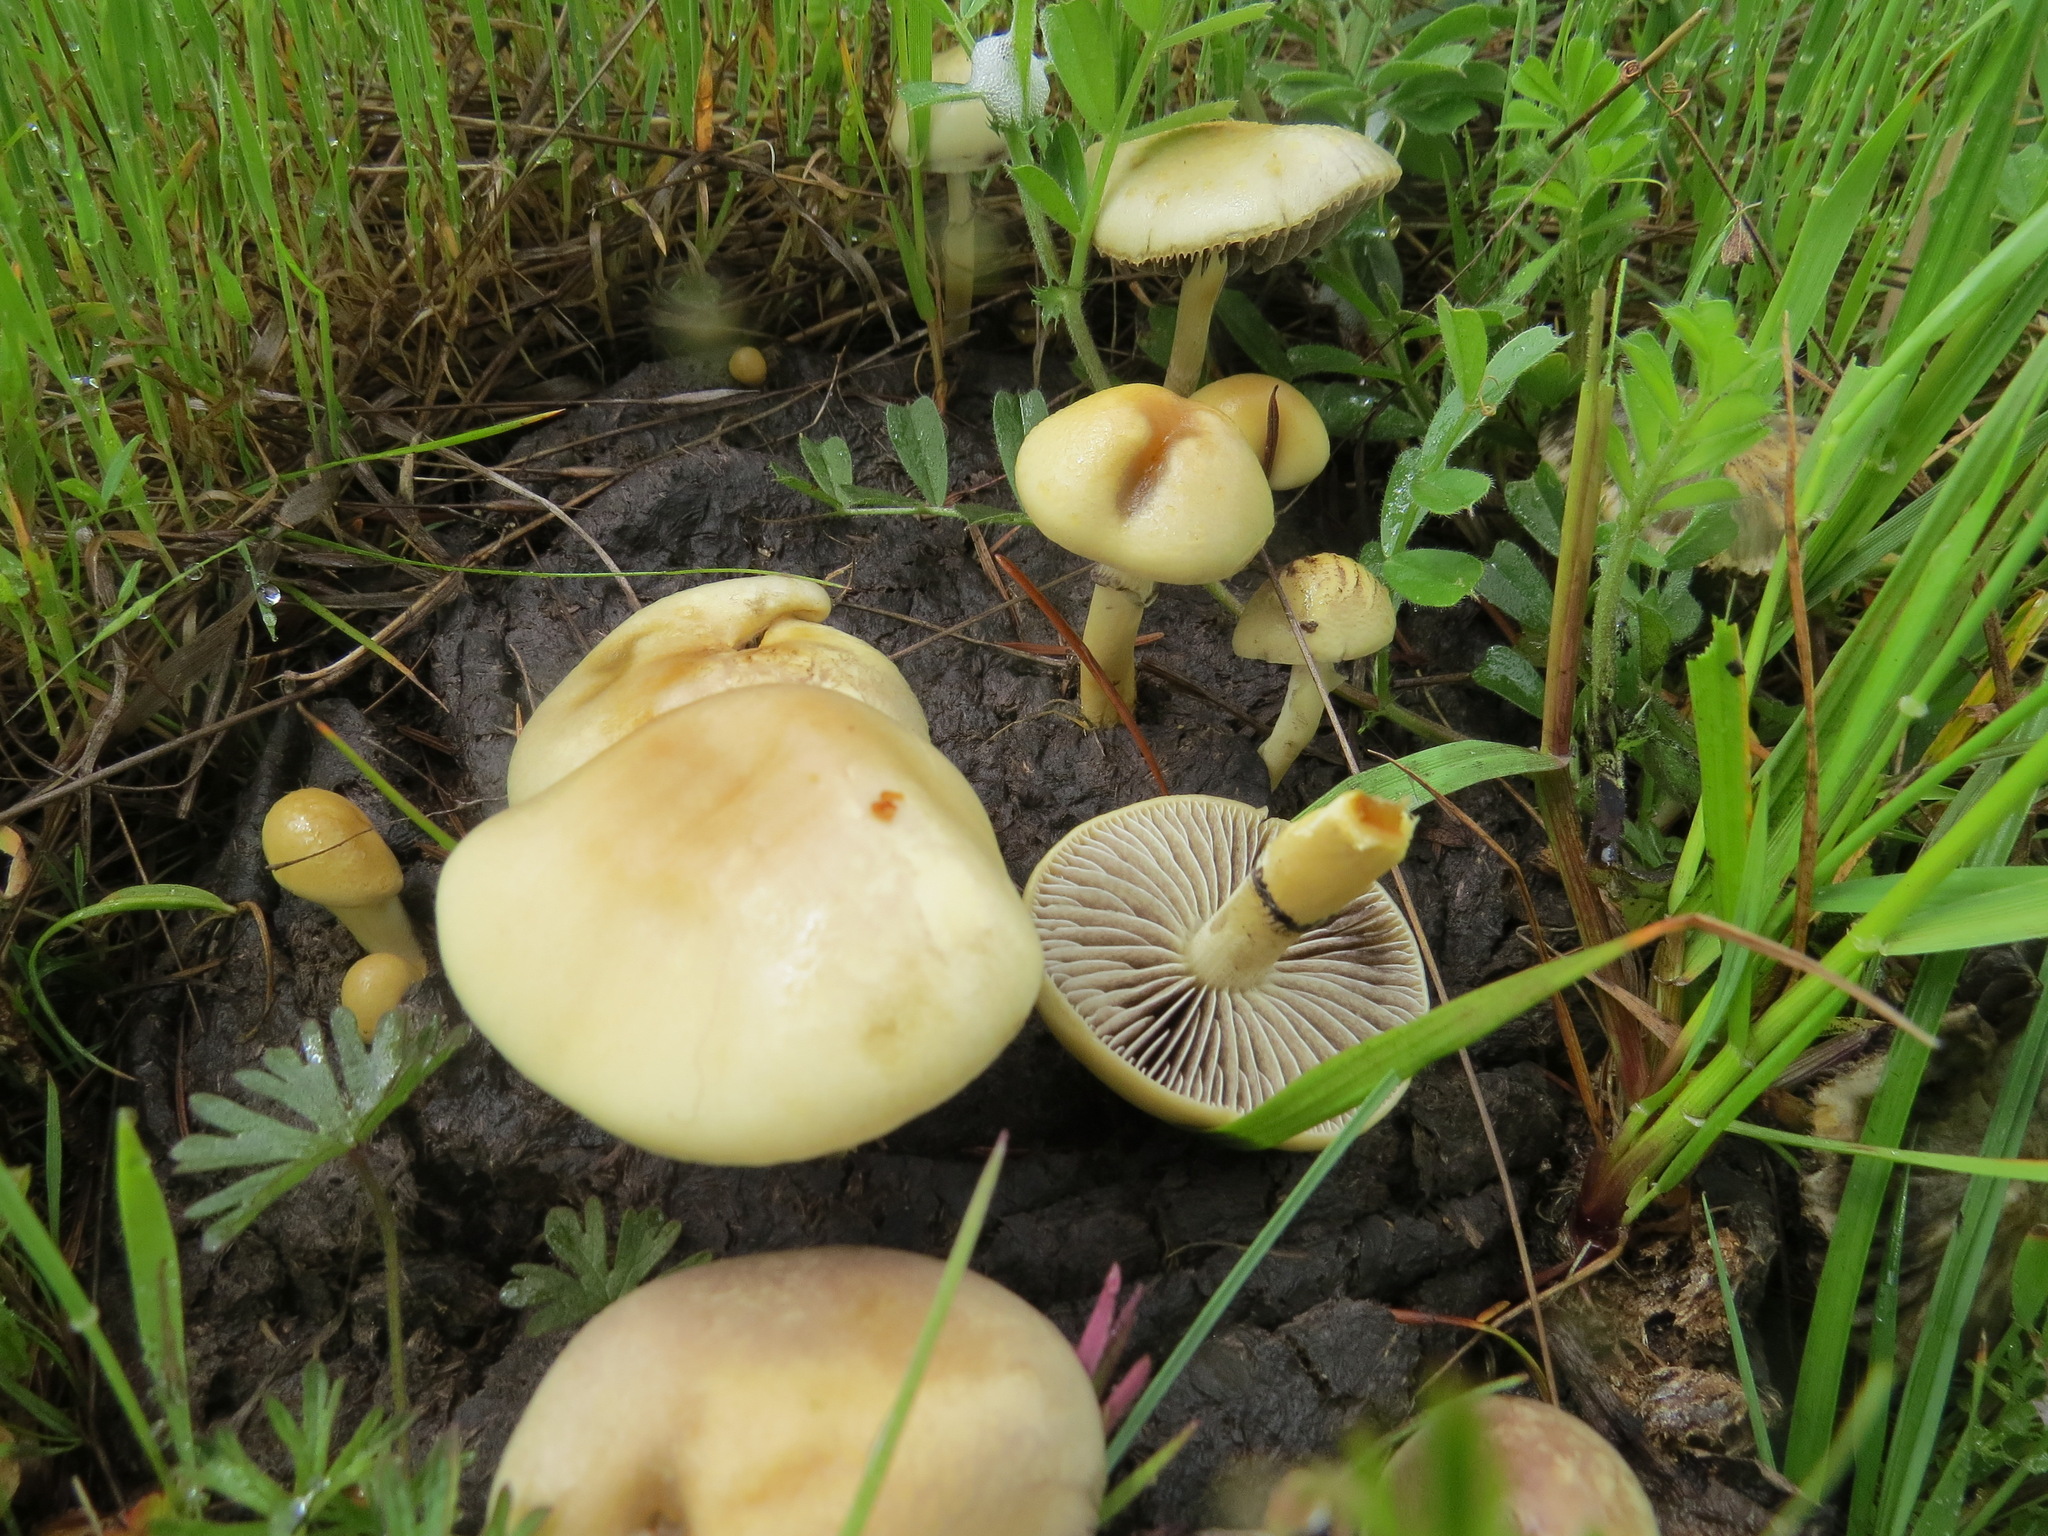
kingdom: Fungi
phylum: Basidiomycota
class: Agaricomycetes
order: Agaricales
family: Strophariaceae
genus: Protostropharia
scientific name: Protostropharia semiglobata
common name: Dung roundhead
